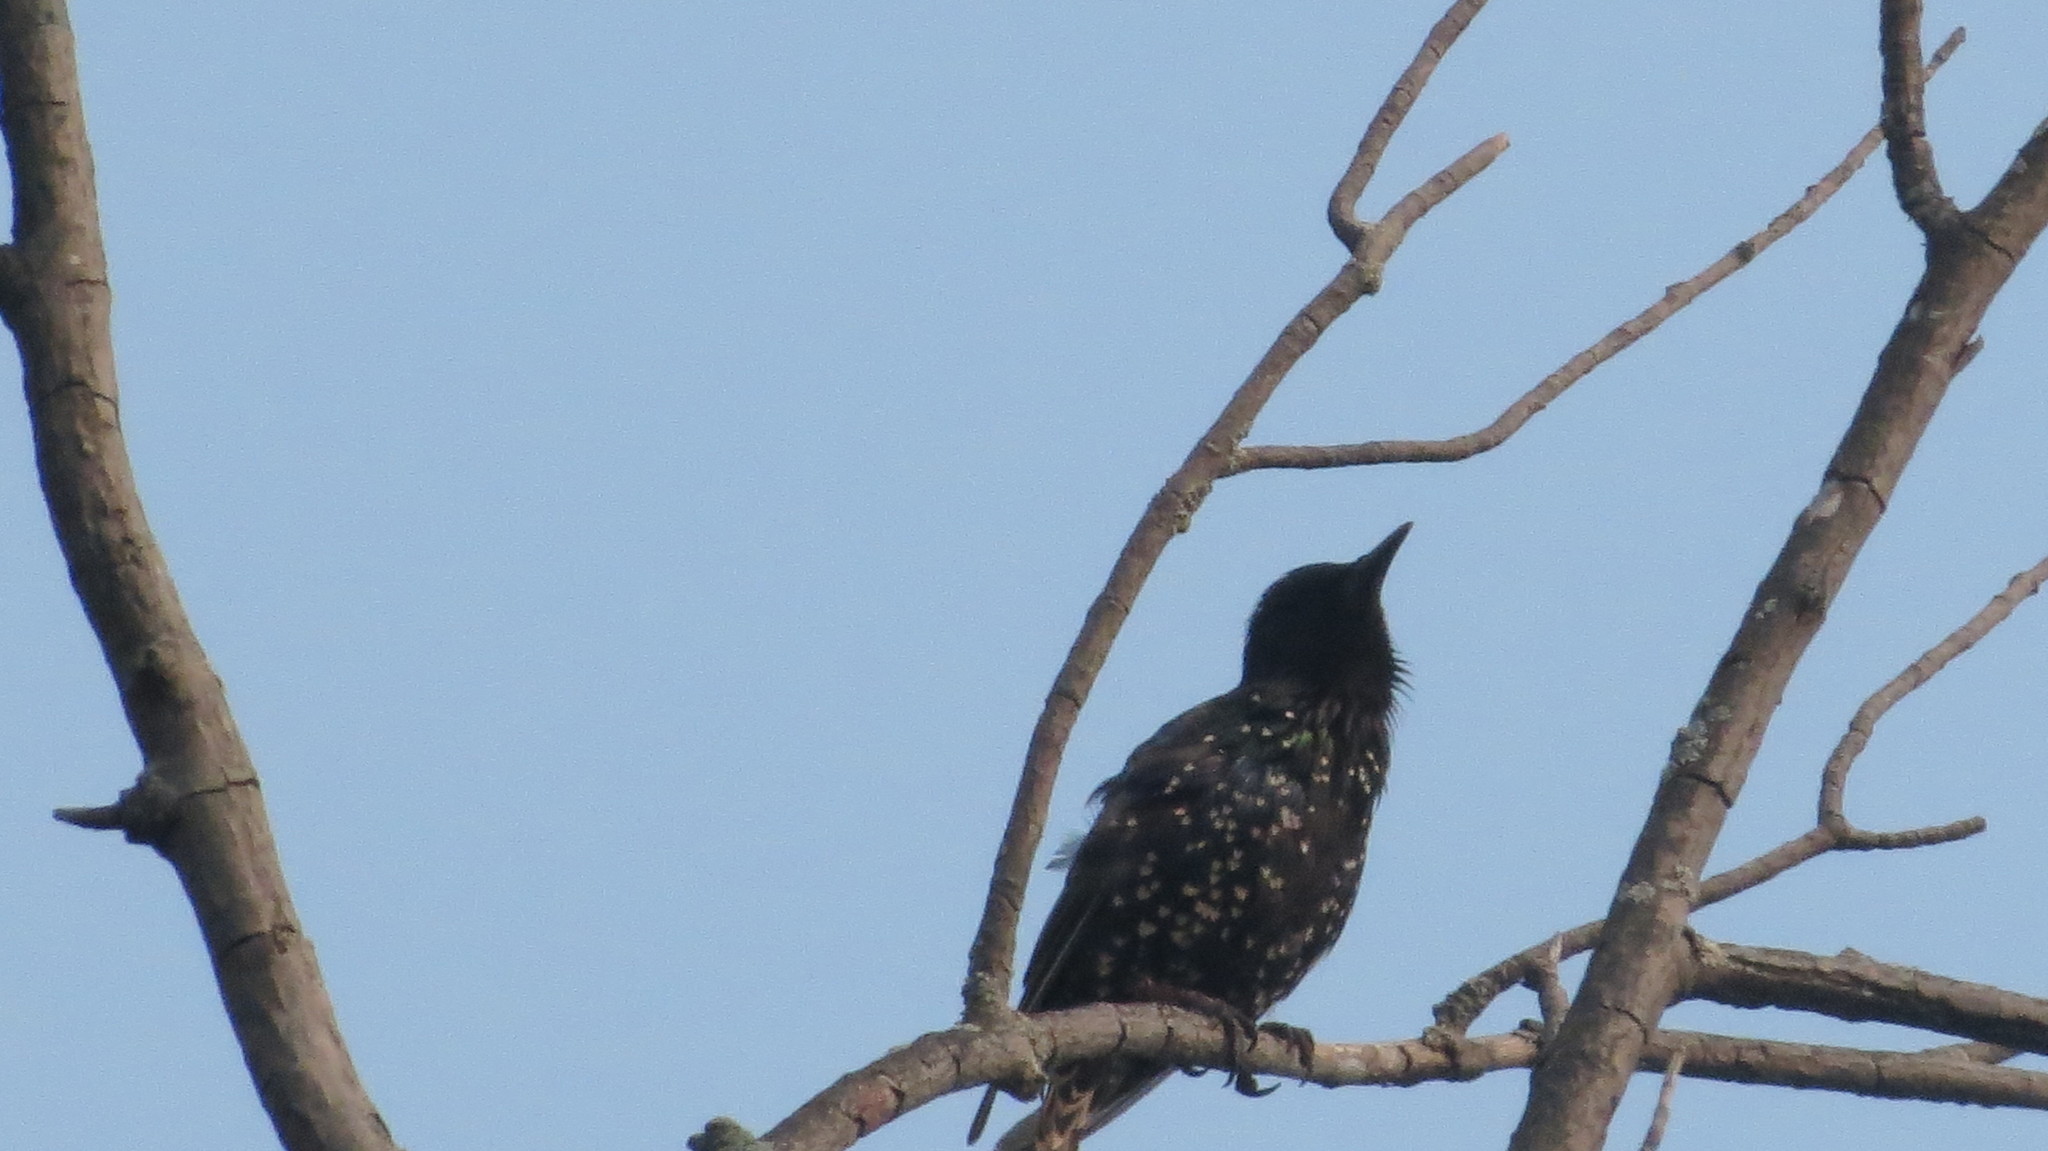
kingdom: Animalia
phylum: Chordata
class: Aves
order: Passeriformes
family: Sturnidae
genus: Sturnus
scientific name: Sturnus vulgaris
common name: Common starling
